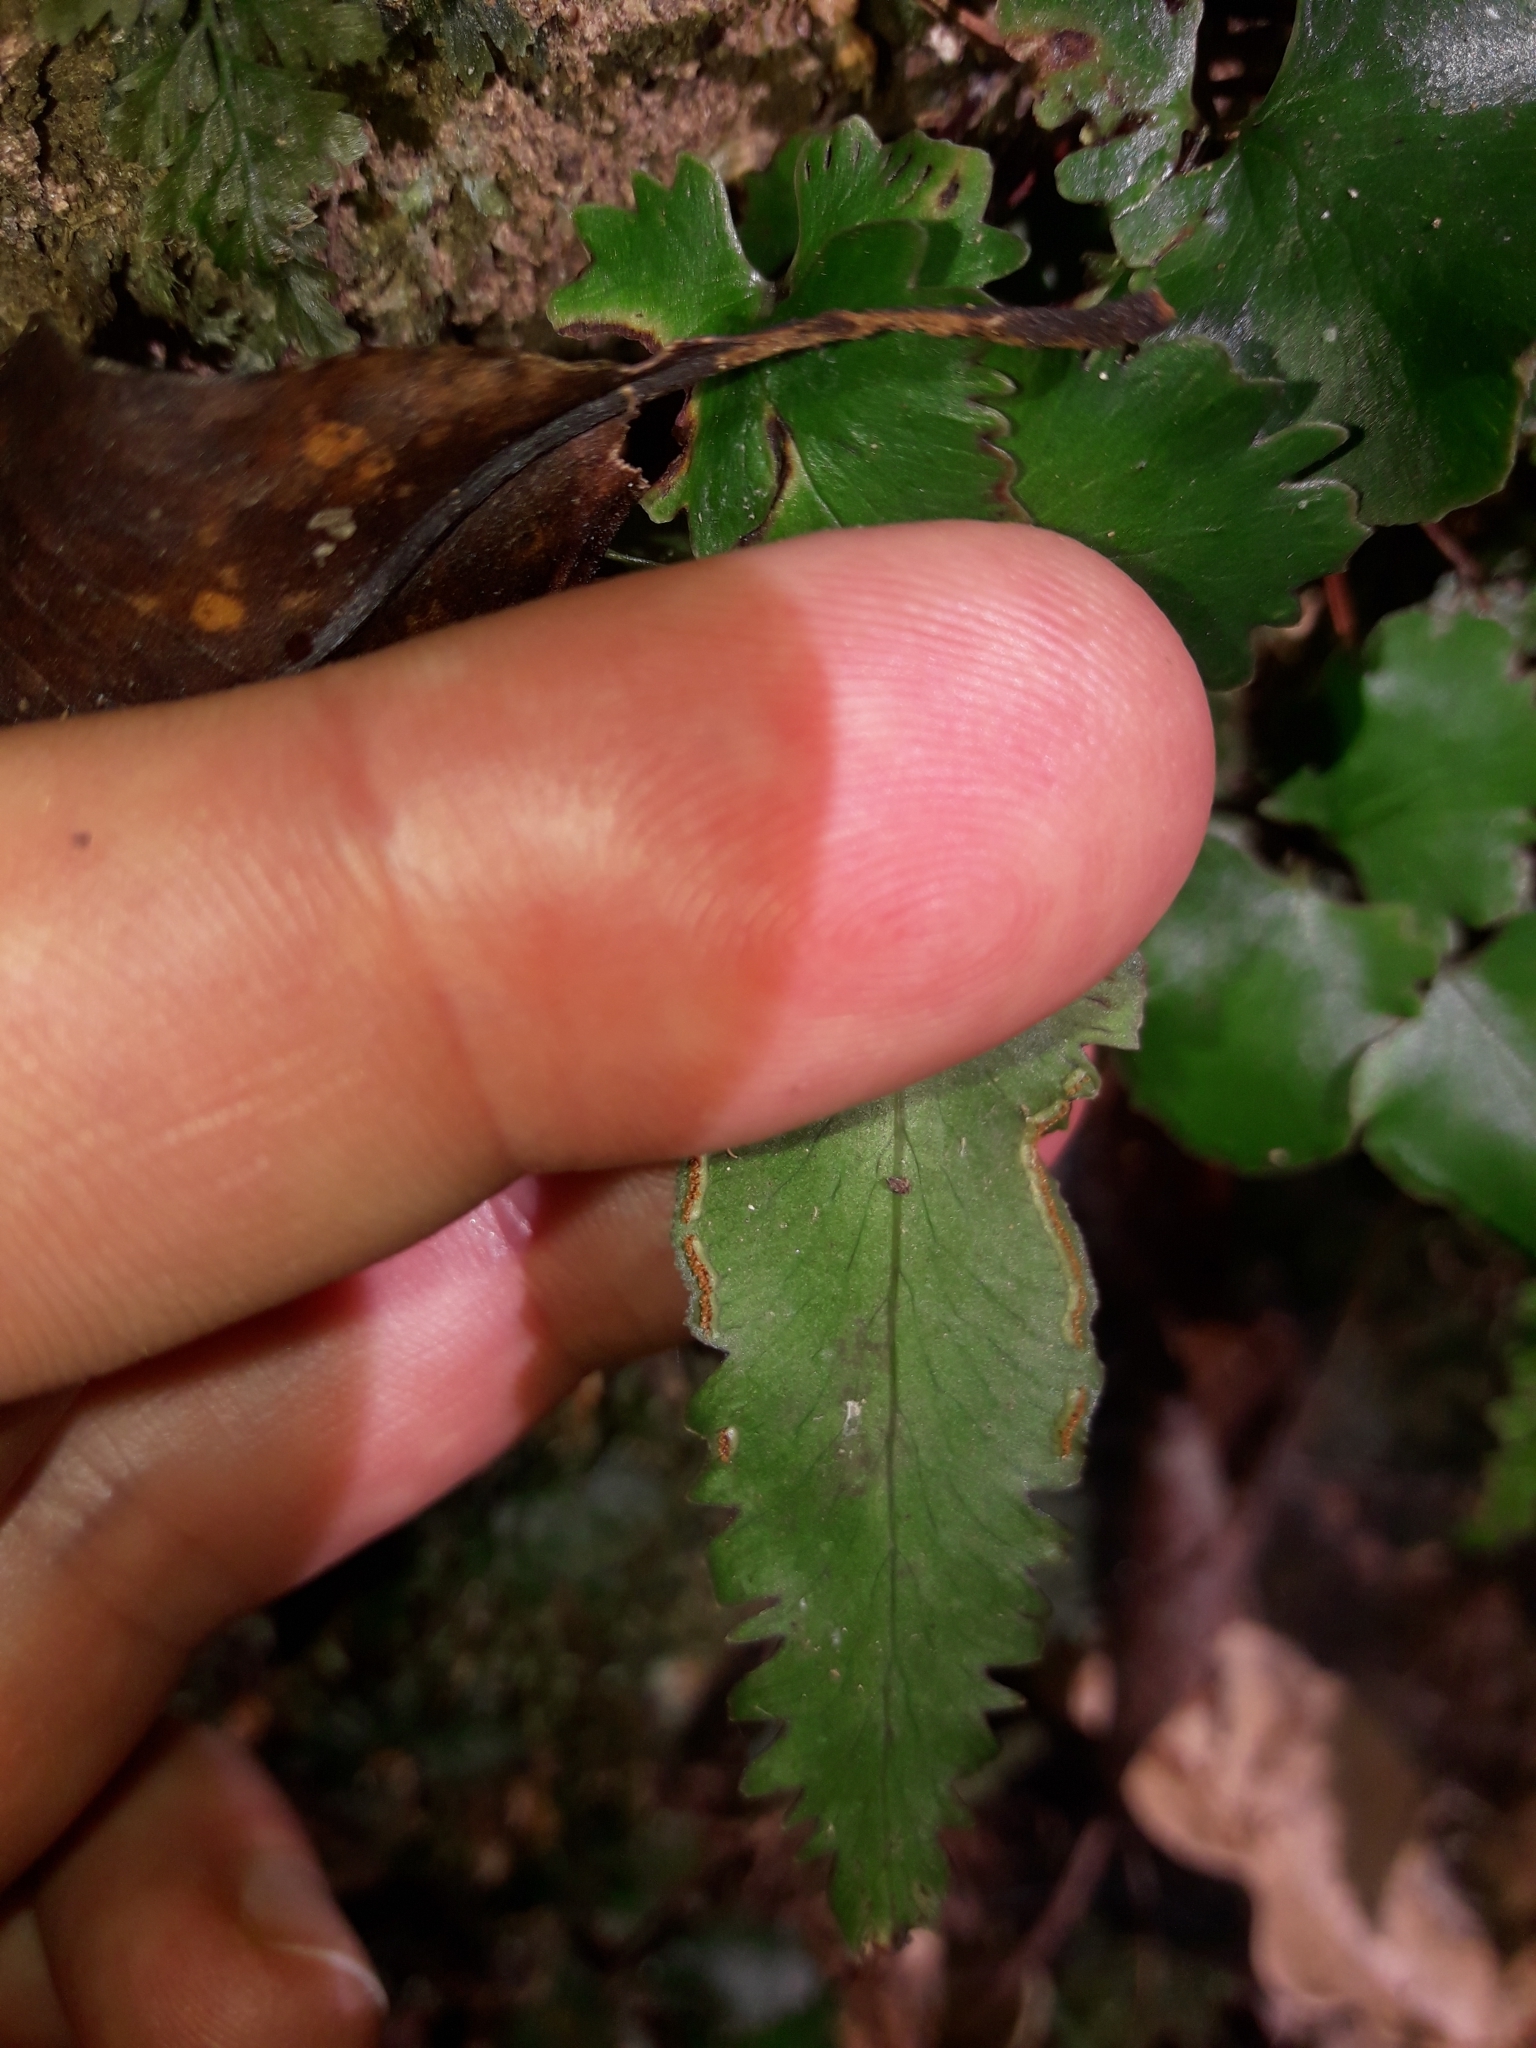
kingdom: Plantae
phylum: Tracheophyta
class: Polypodiopsida
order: Polypodiales
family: Lindsaeaceae
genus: Lindsaea
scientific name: Lindsaea vieillardii
